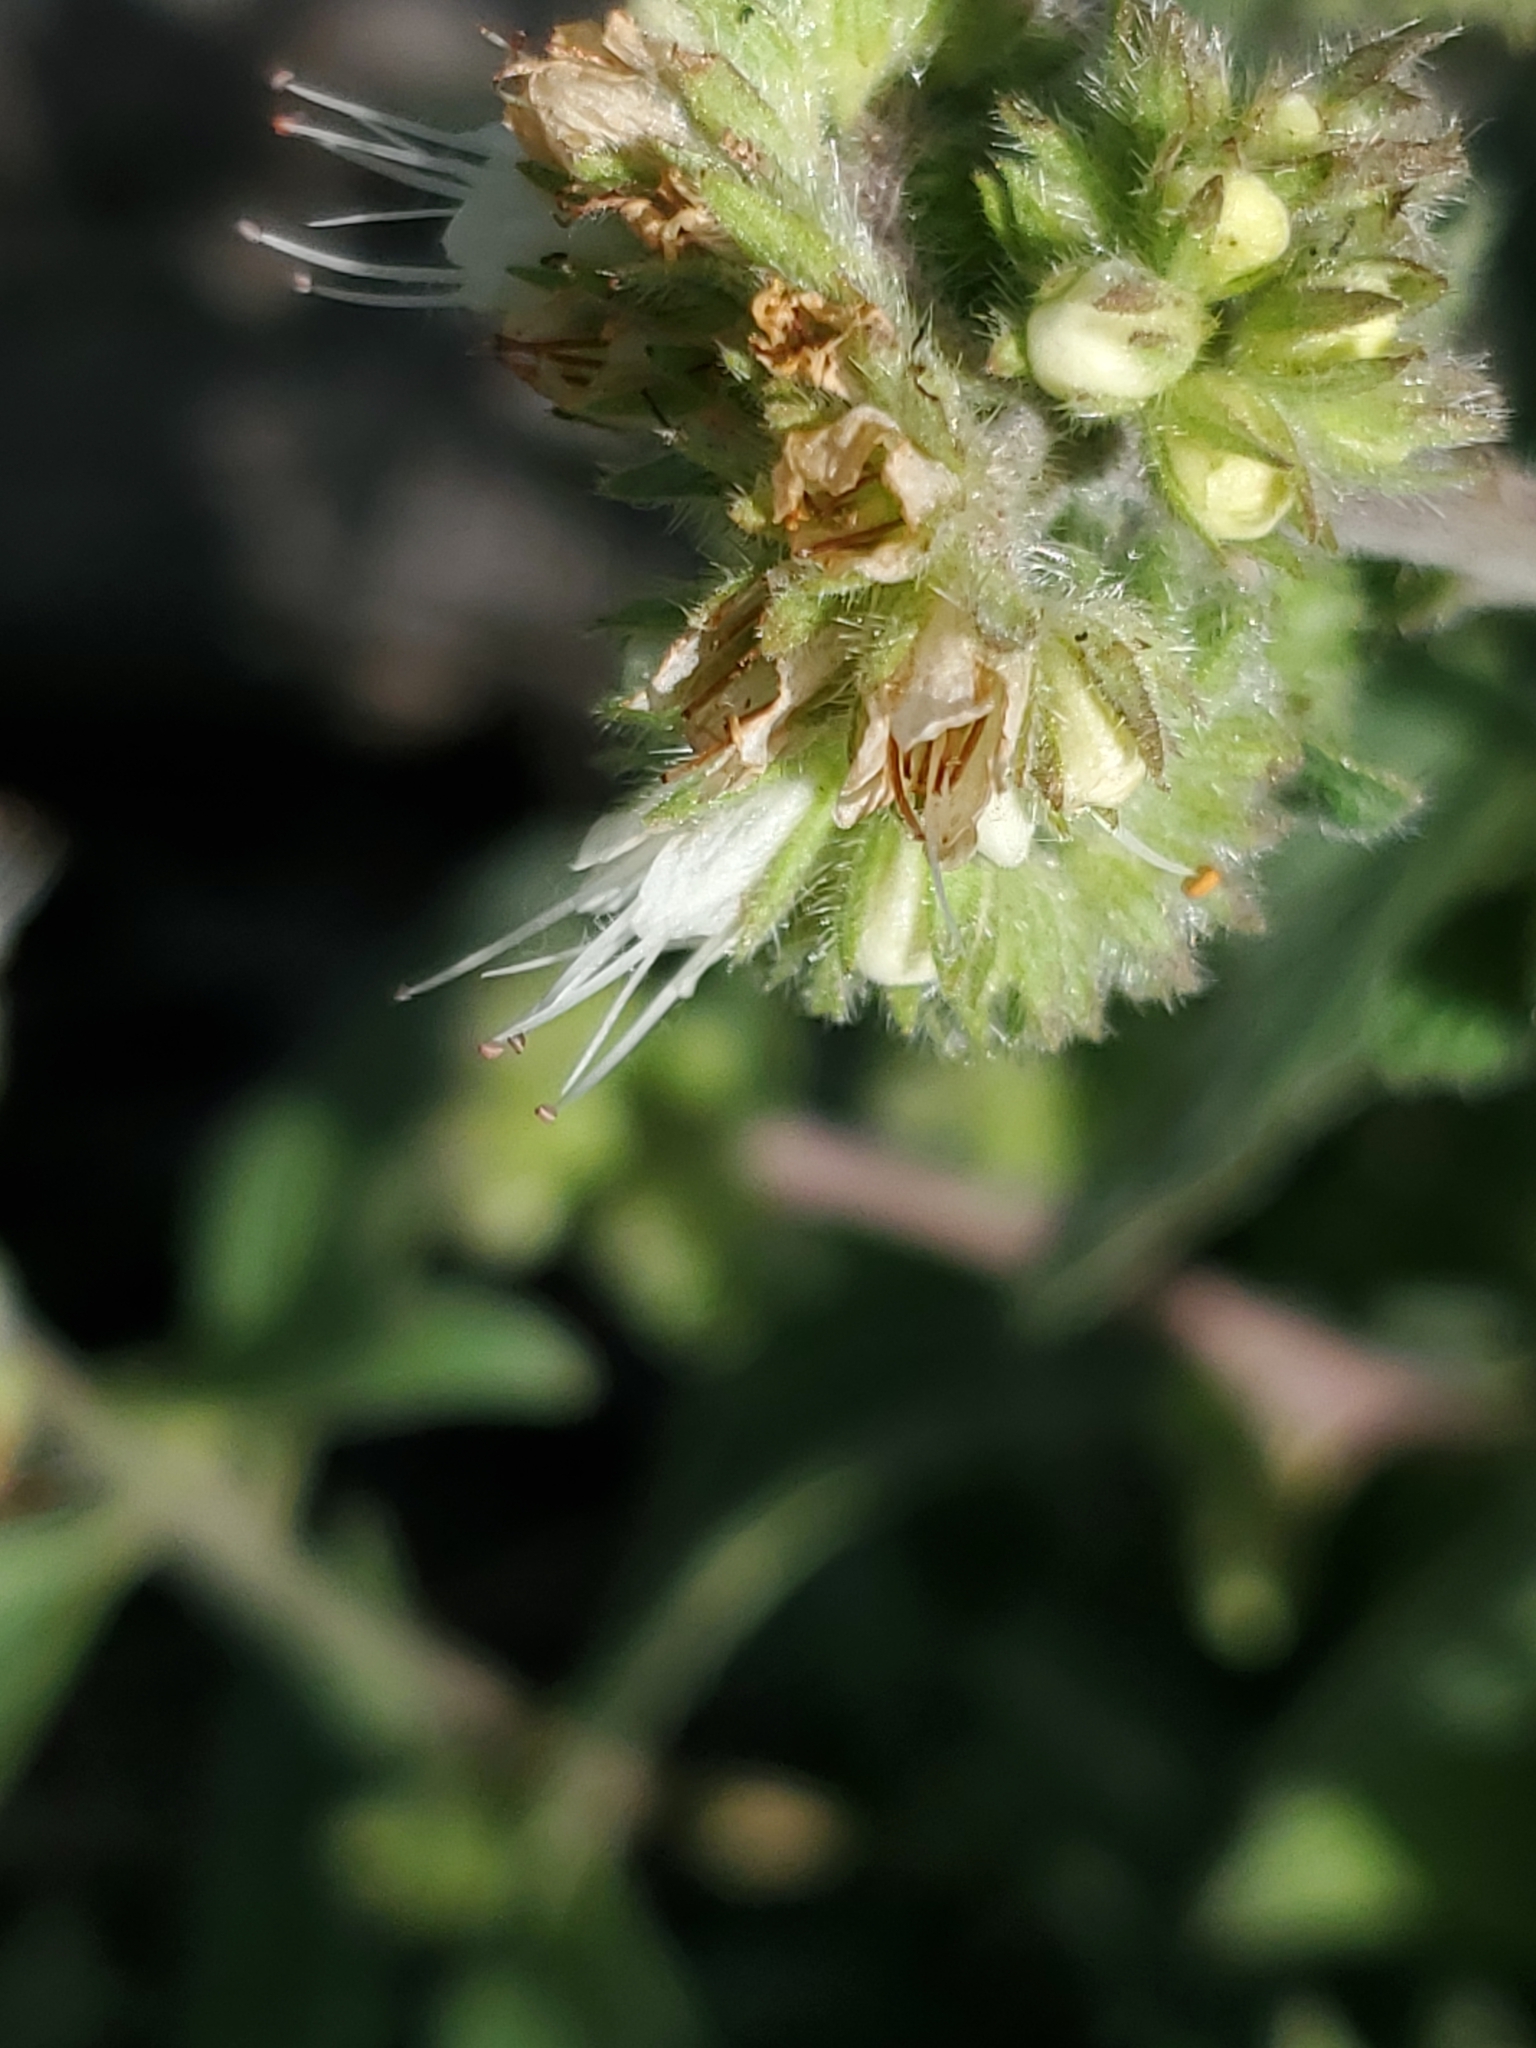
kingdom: Plantae
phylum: Tracheophyta
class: Magnoliopsida
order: Boraginales
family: Hydrophyllaceae
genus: Phacelia
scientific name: Phacelia heterophylla
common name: Variable-leaved phacelia
